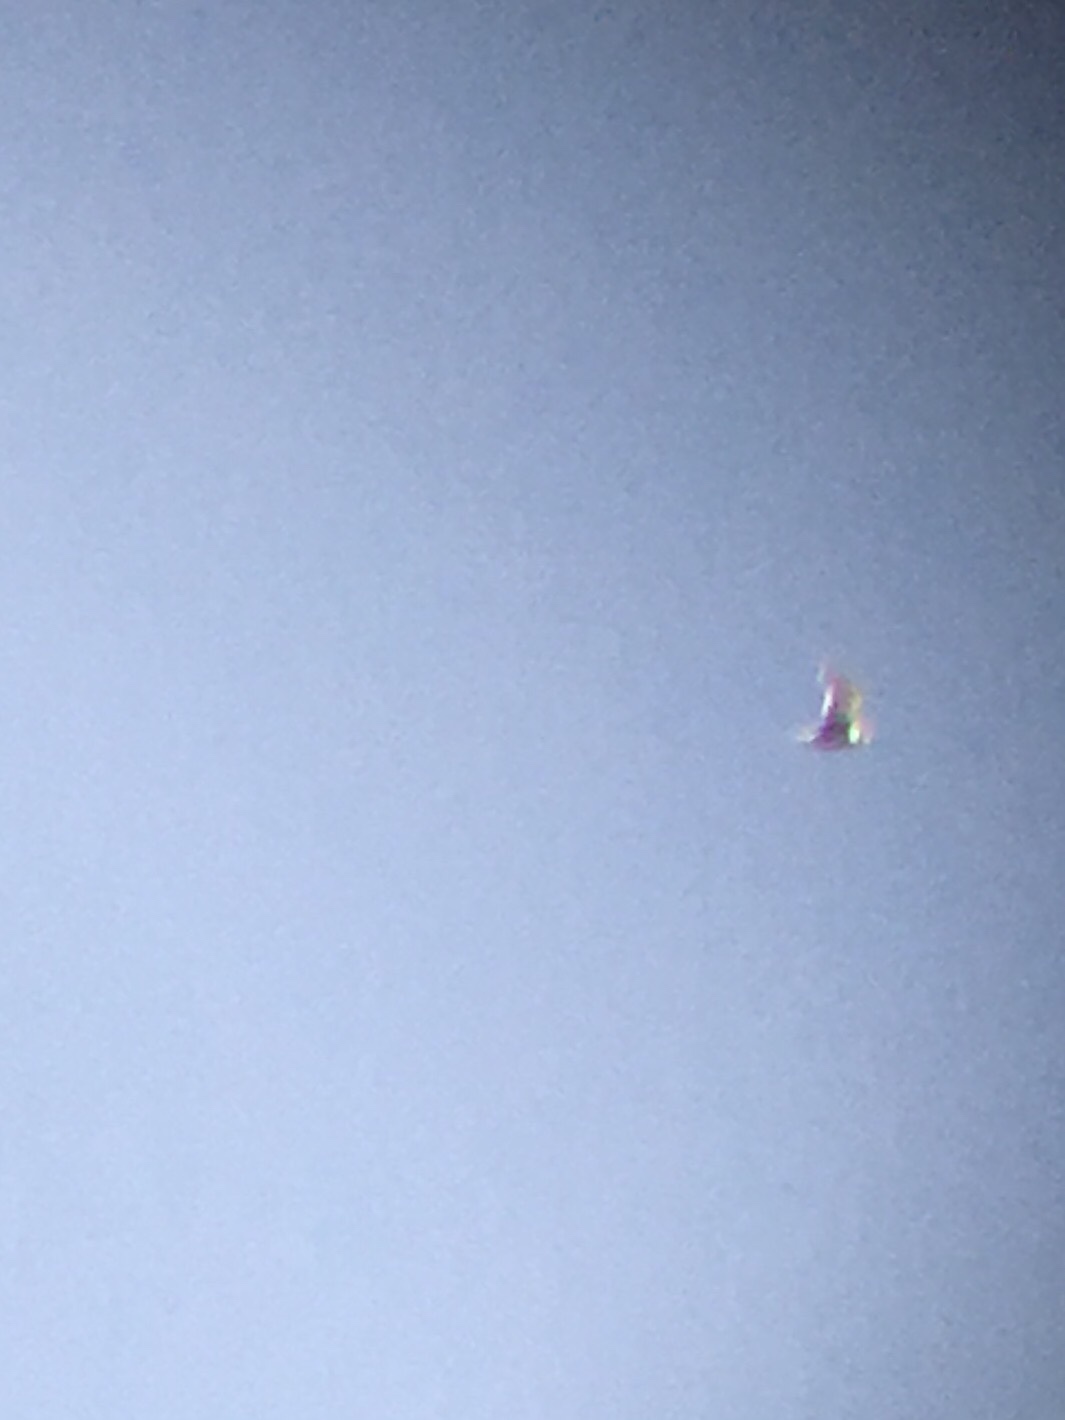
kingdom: Animalia
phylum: Chordata
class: Aves
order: Charadriiformes
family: Laridae
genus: Leucophaeus
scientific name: Leucophaeus pipixcan
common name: Franklin's gull
